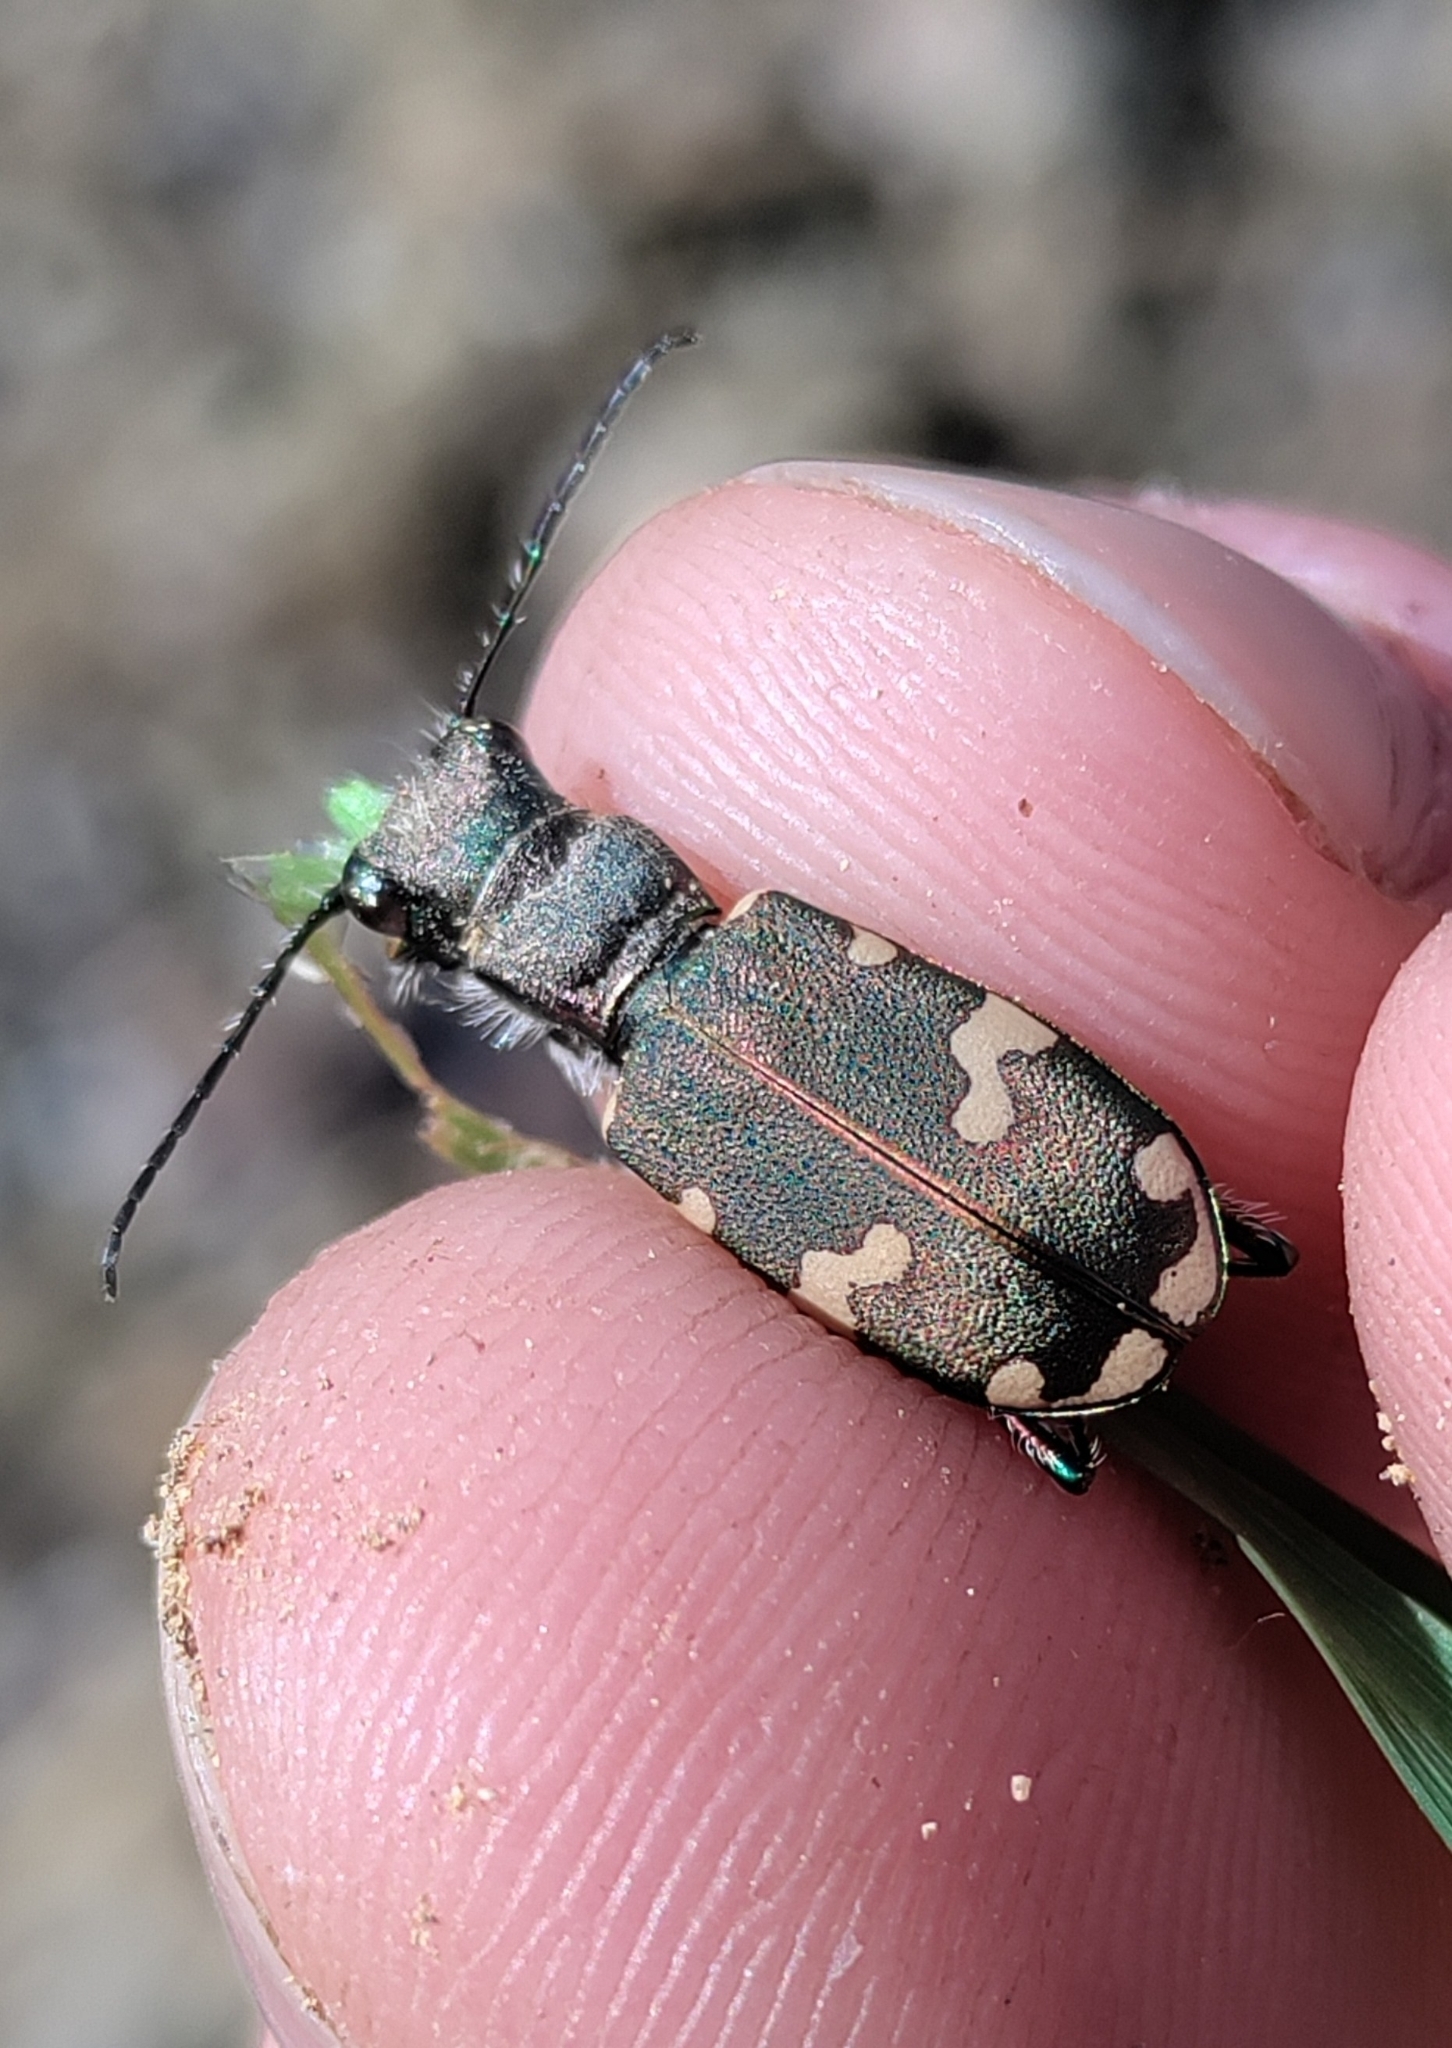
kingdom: Animalia
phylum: Arthropoda
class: Insecta
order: Coleoptera
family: Carabidae
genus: Cicindela
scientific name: Cicindela sylvicola
